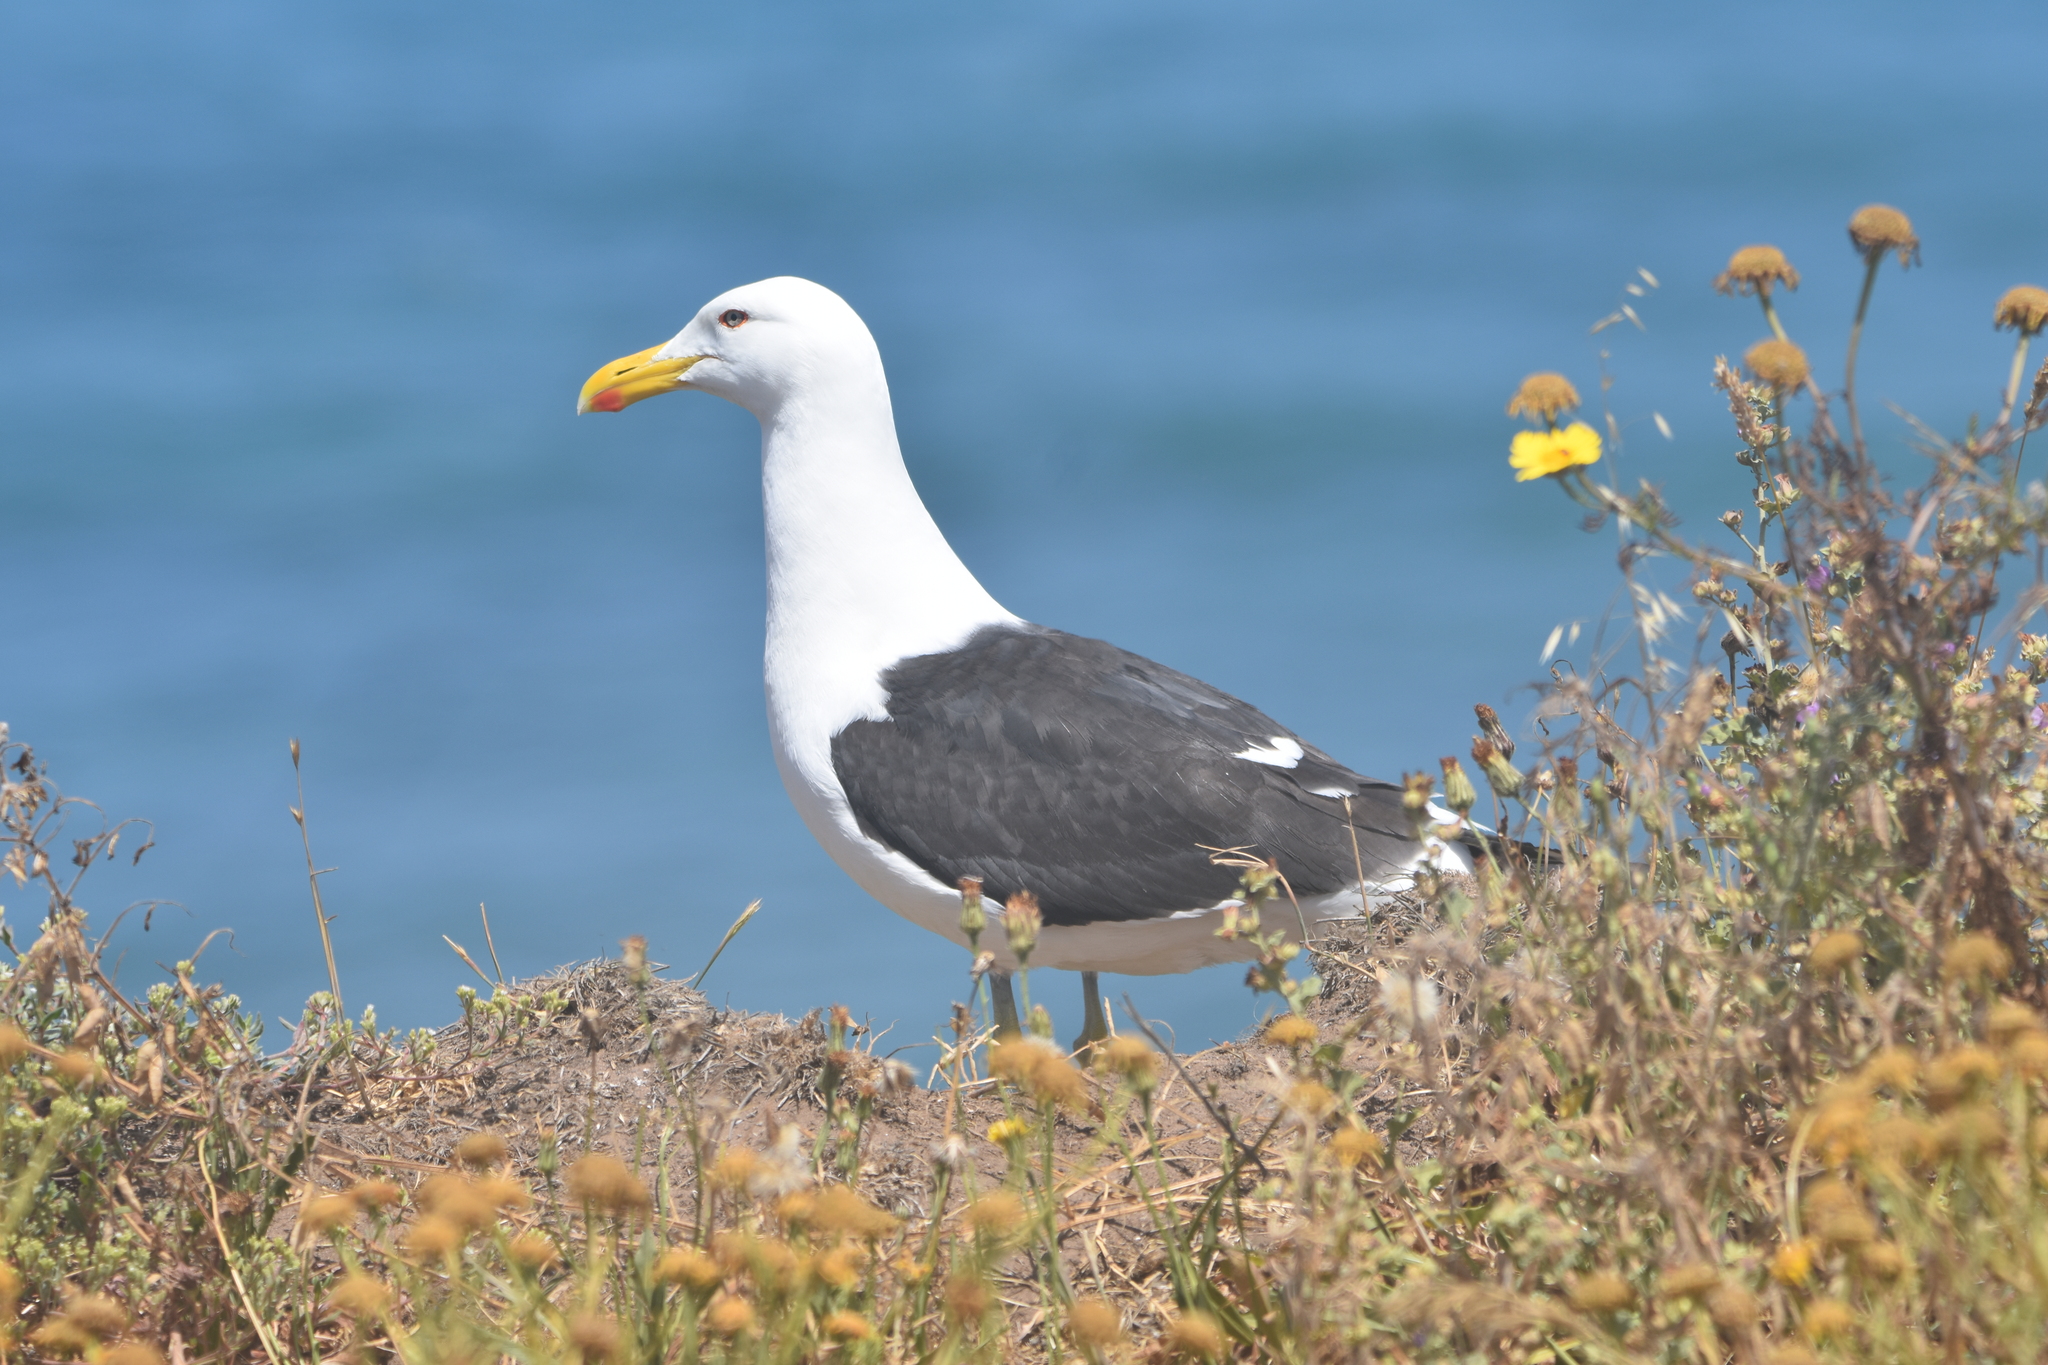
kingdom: Animalia
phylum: Chordata
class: Aves
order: Charadriiformes
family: Laridae
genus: Larus
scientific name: Larus dominicanus
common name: Kelp gull
